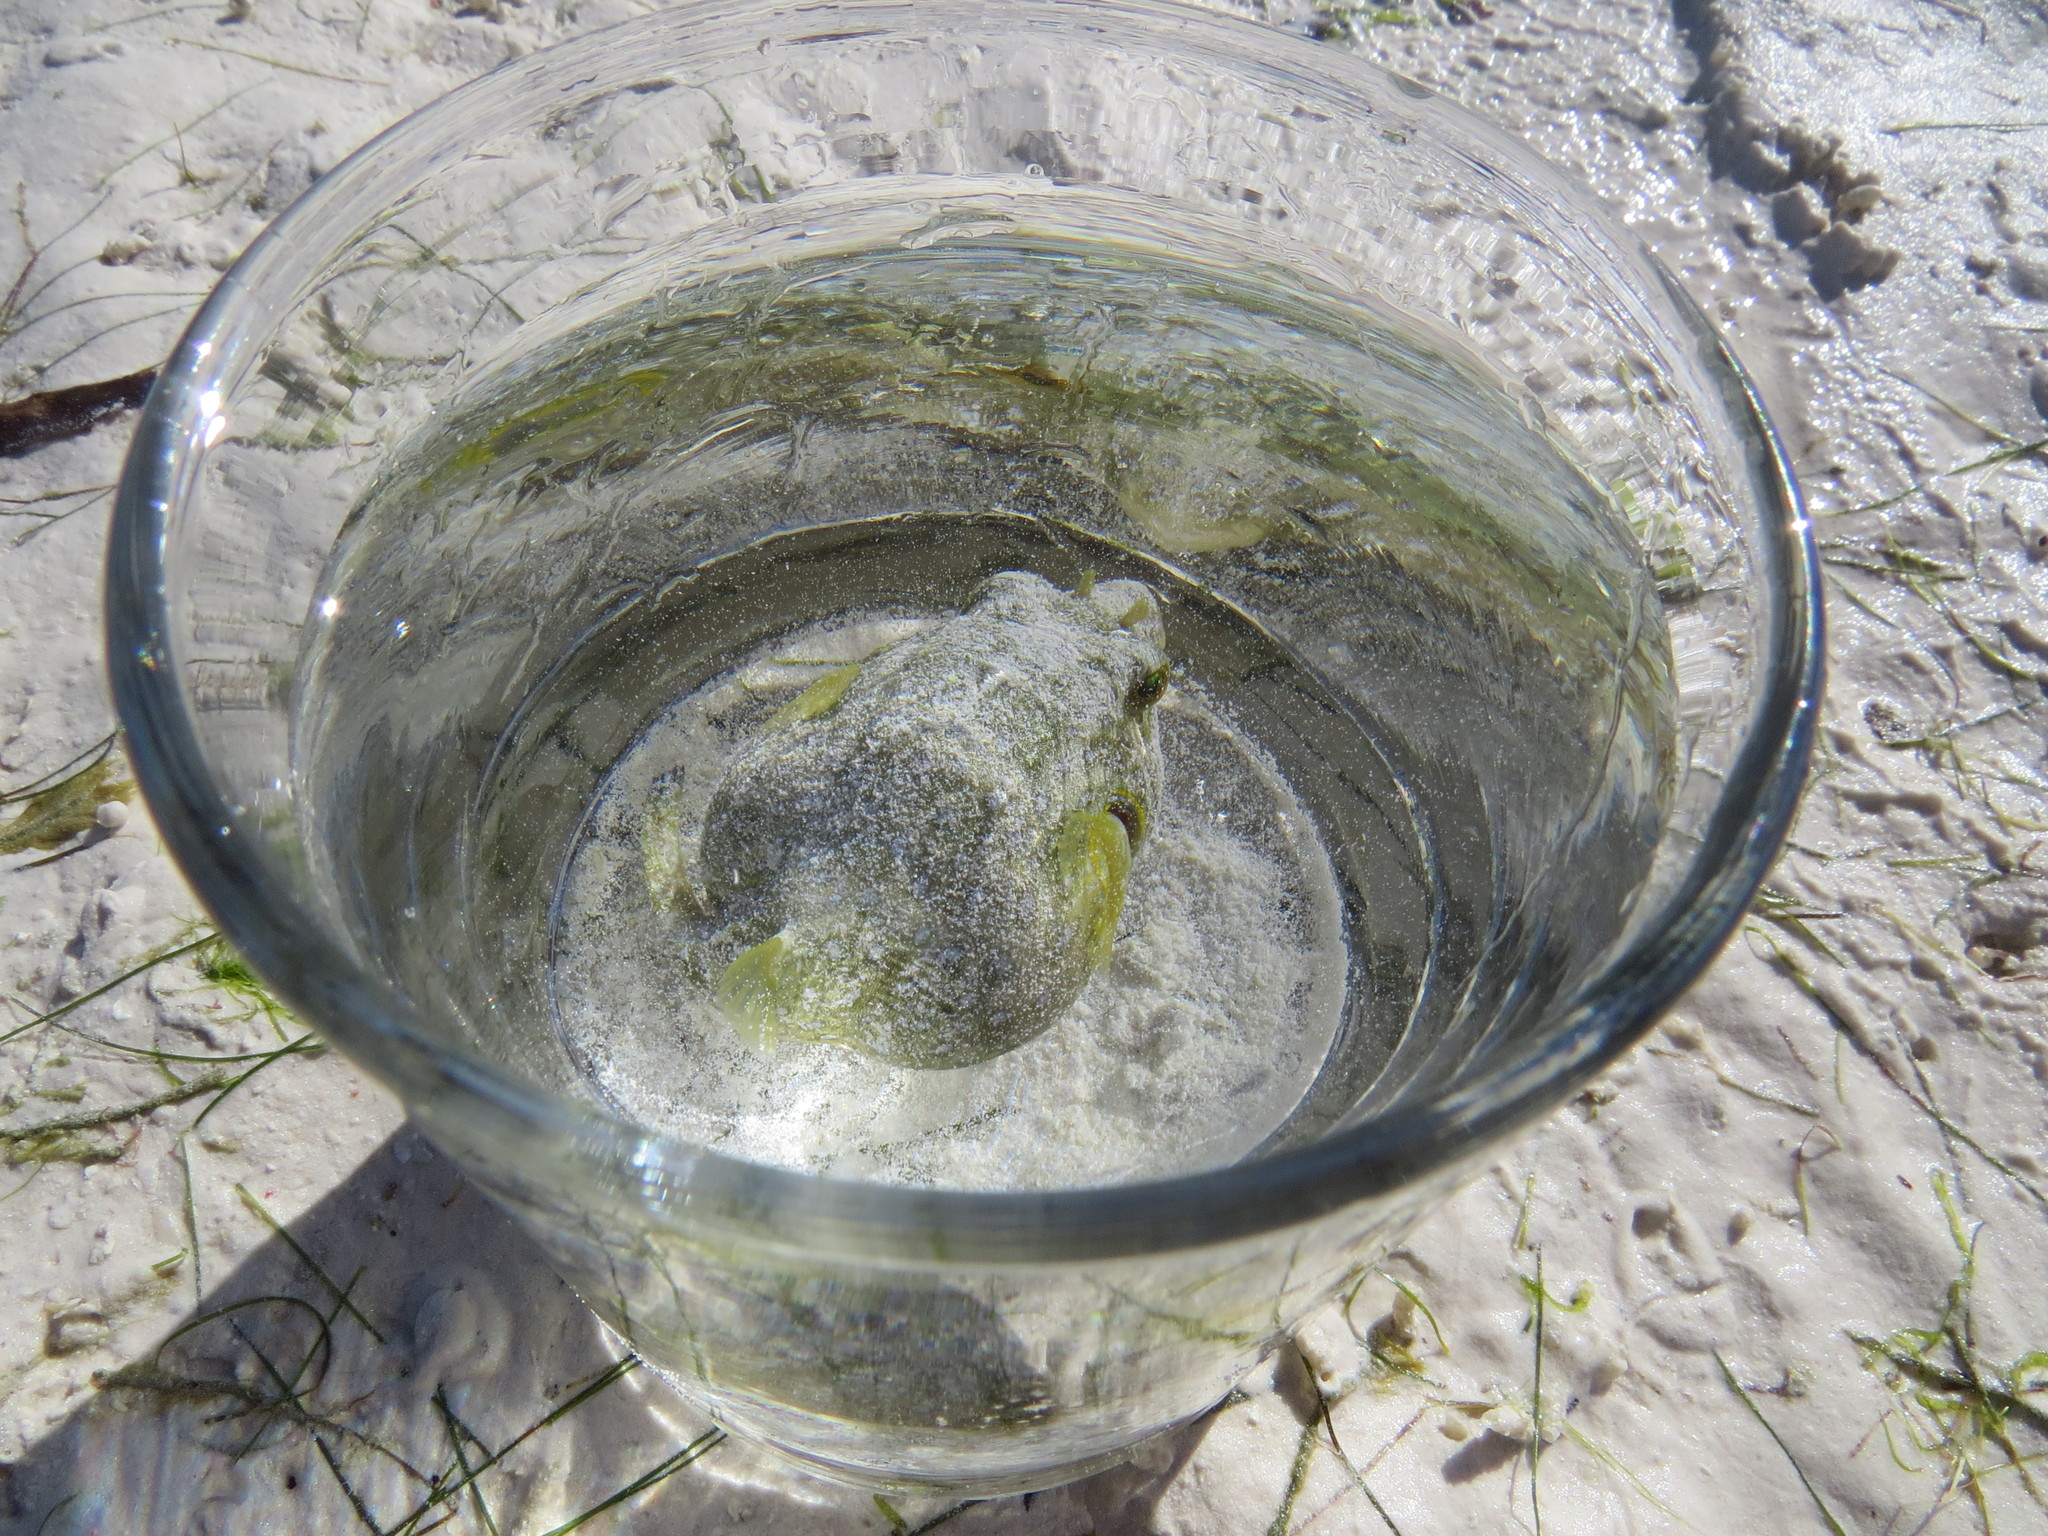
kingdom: Animalia
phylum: Chordata
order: Tetraodontiformes
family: Tetraodontidae
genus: Arothron
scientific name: Arothron immaculatus
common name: Blackedged blaasop
